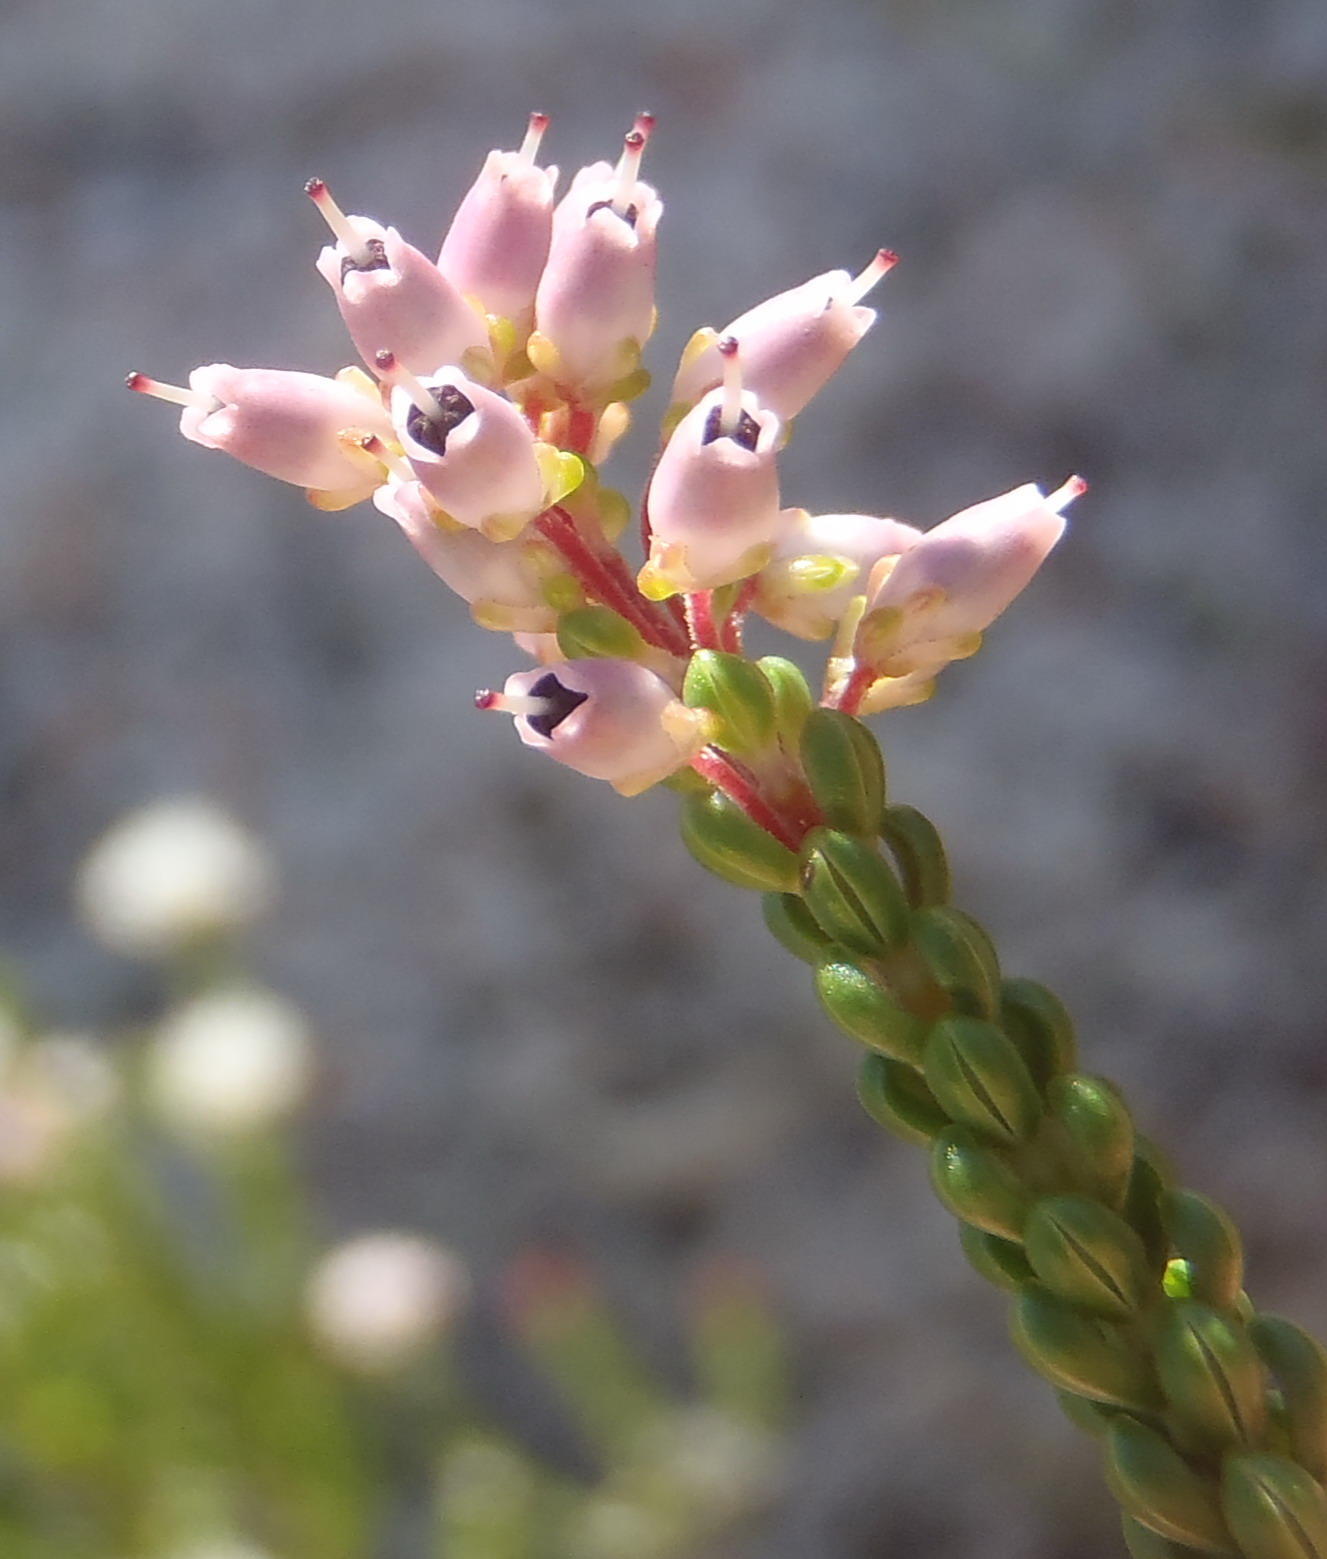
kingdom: Plantae
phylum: Tracheophyta
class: Magnoliopsida
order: Ericales
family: Ericaceae
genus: Erica
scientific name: Erica petraea
